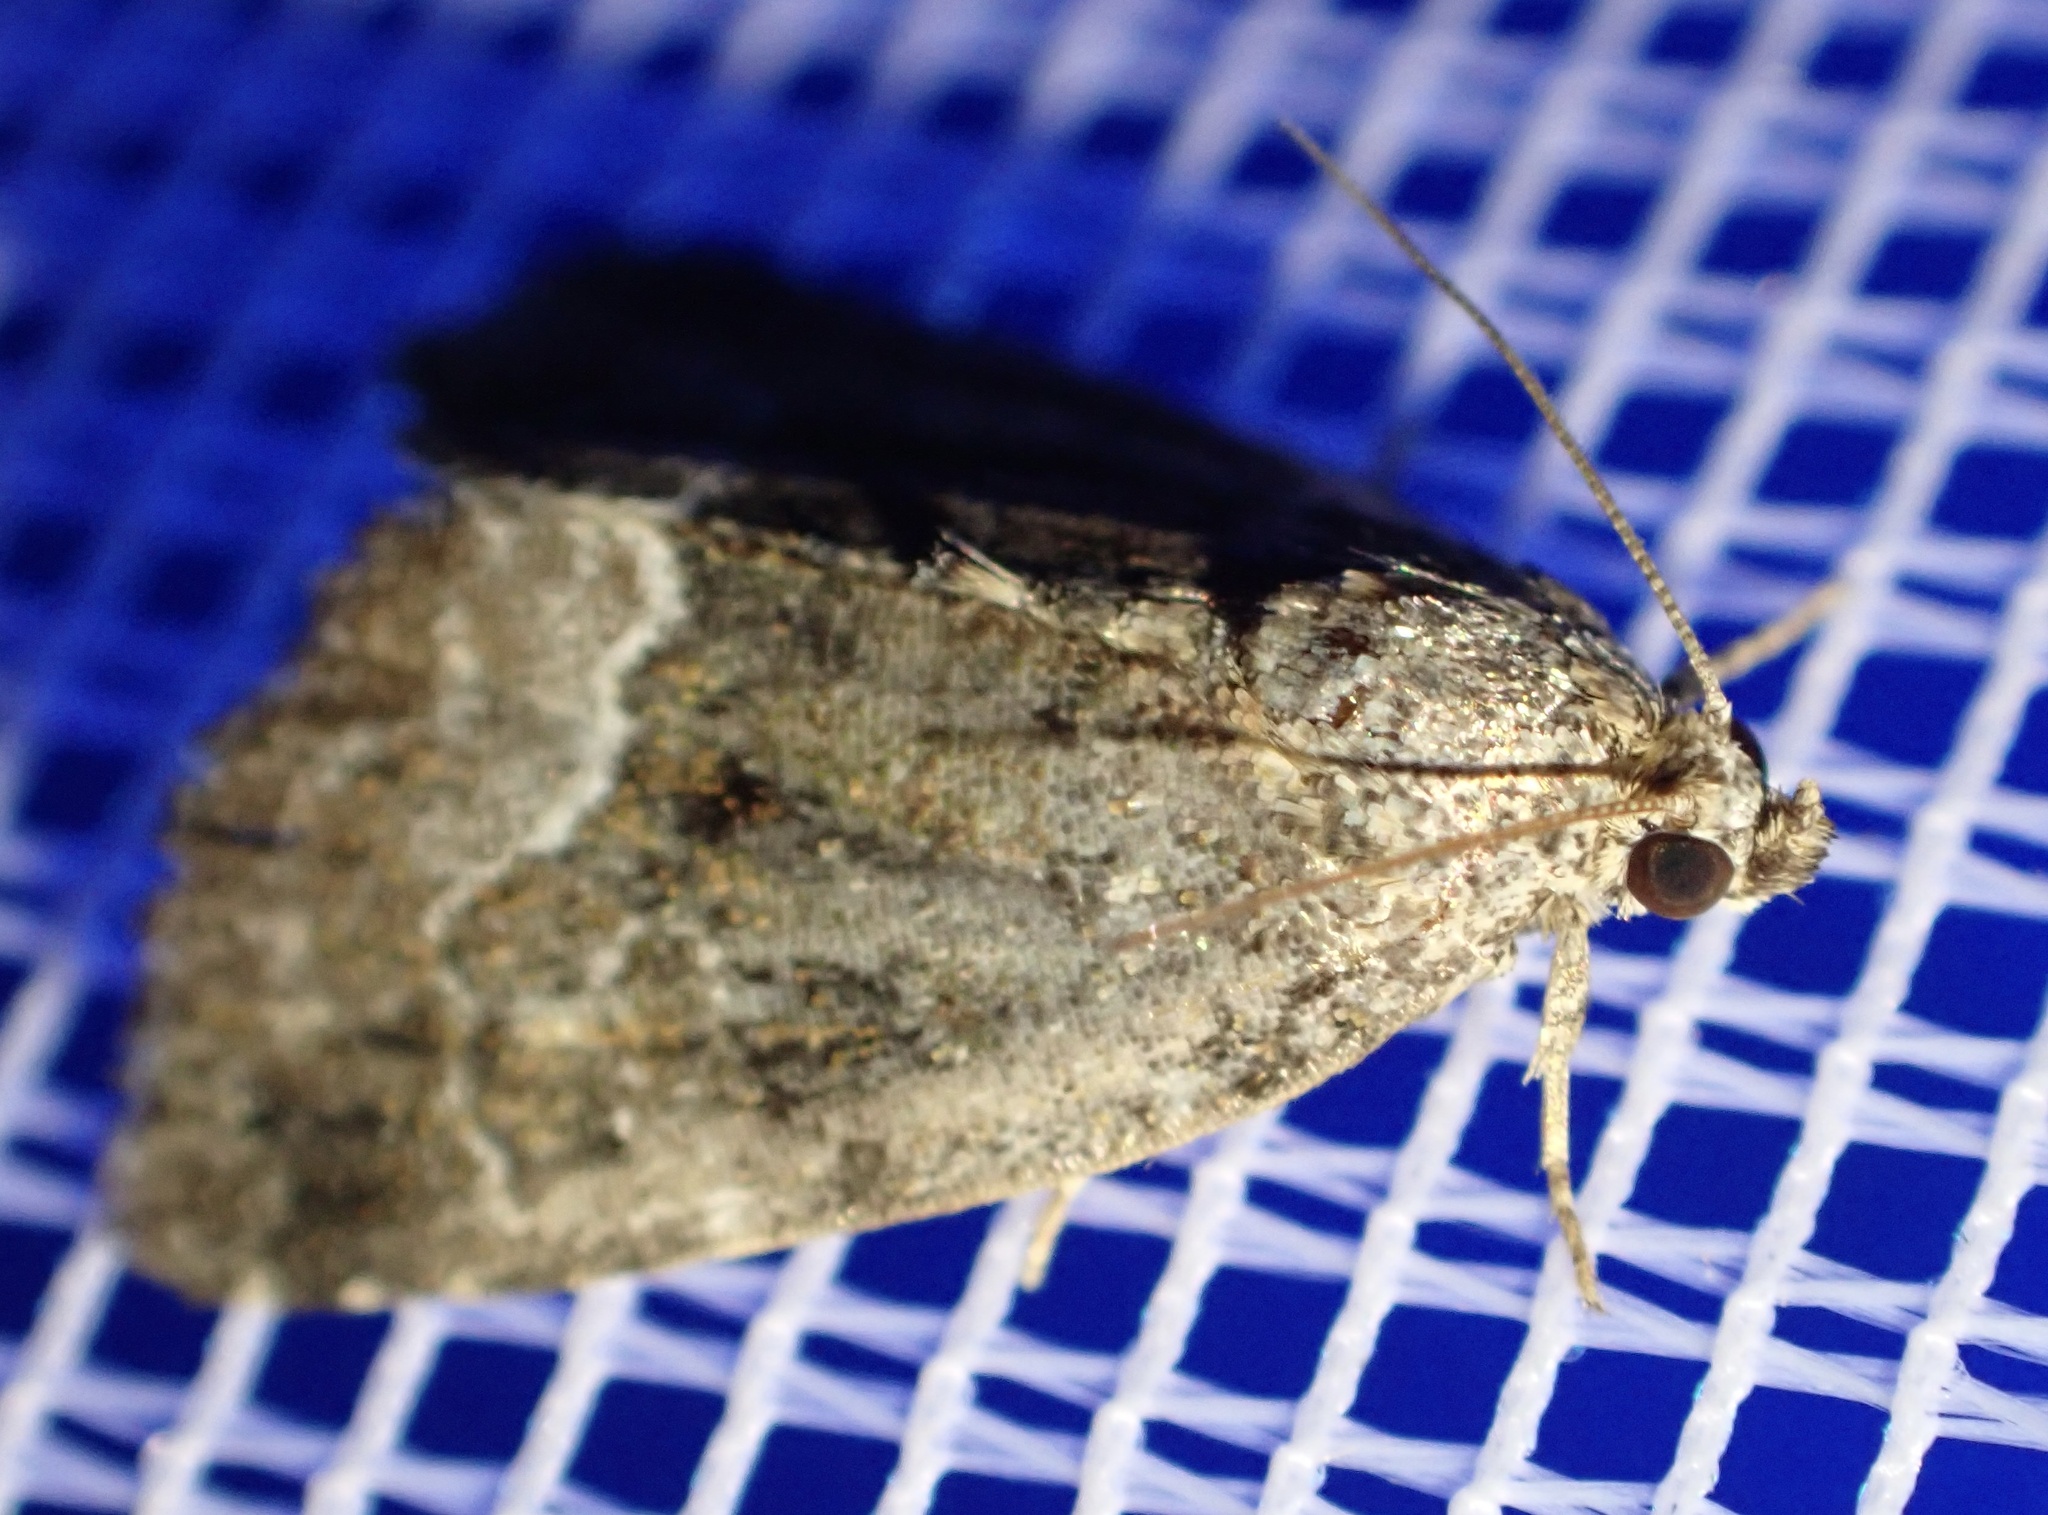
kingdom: Animalia
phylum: Arthropoda
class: Insecta
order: Lepidoptera
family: Noctuidae
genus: Deltote
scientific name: Deltote pygarga
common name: Marbled white spot
